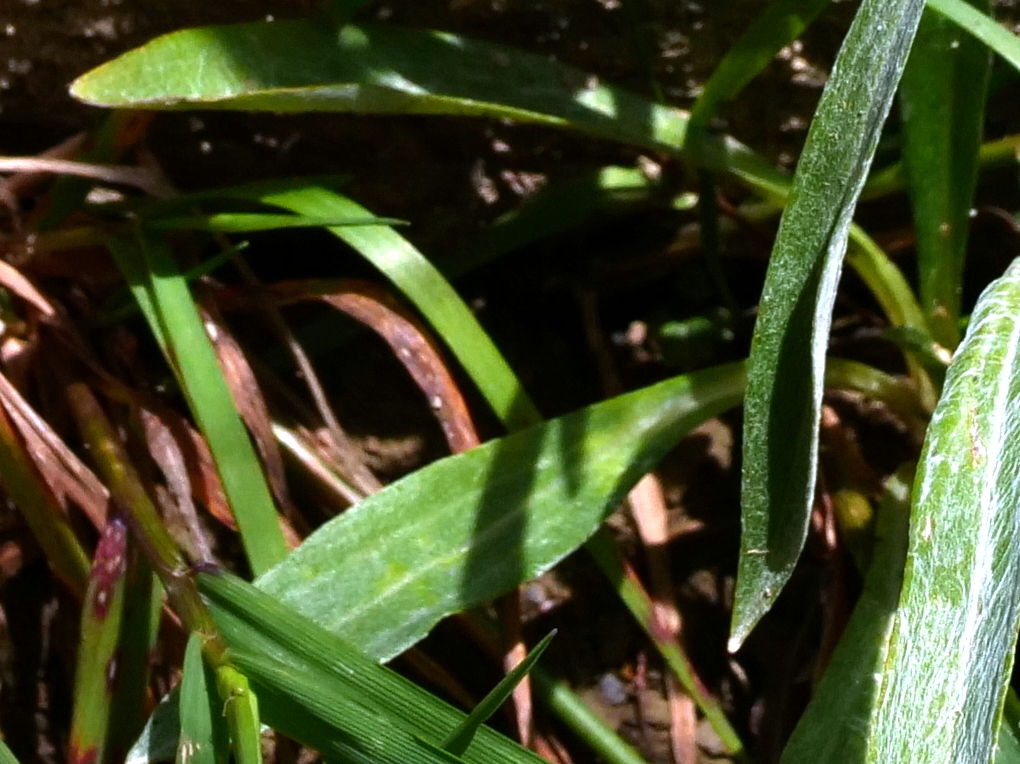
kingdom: Plantae
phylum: Tracheophyta
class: Magnoliopsida
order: Asterales
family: Asteraceae
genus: Omalotheca
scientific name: Omalotheca norvegica
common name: Norwegian arctic-cudweed
